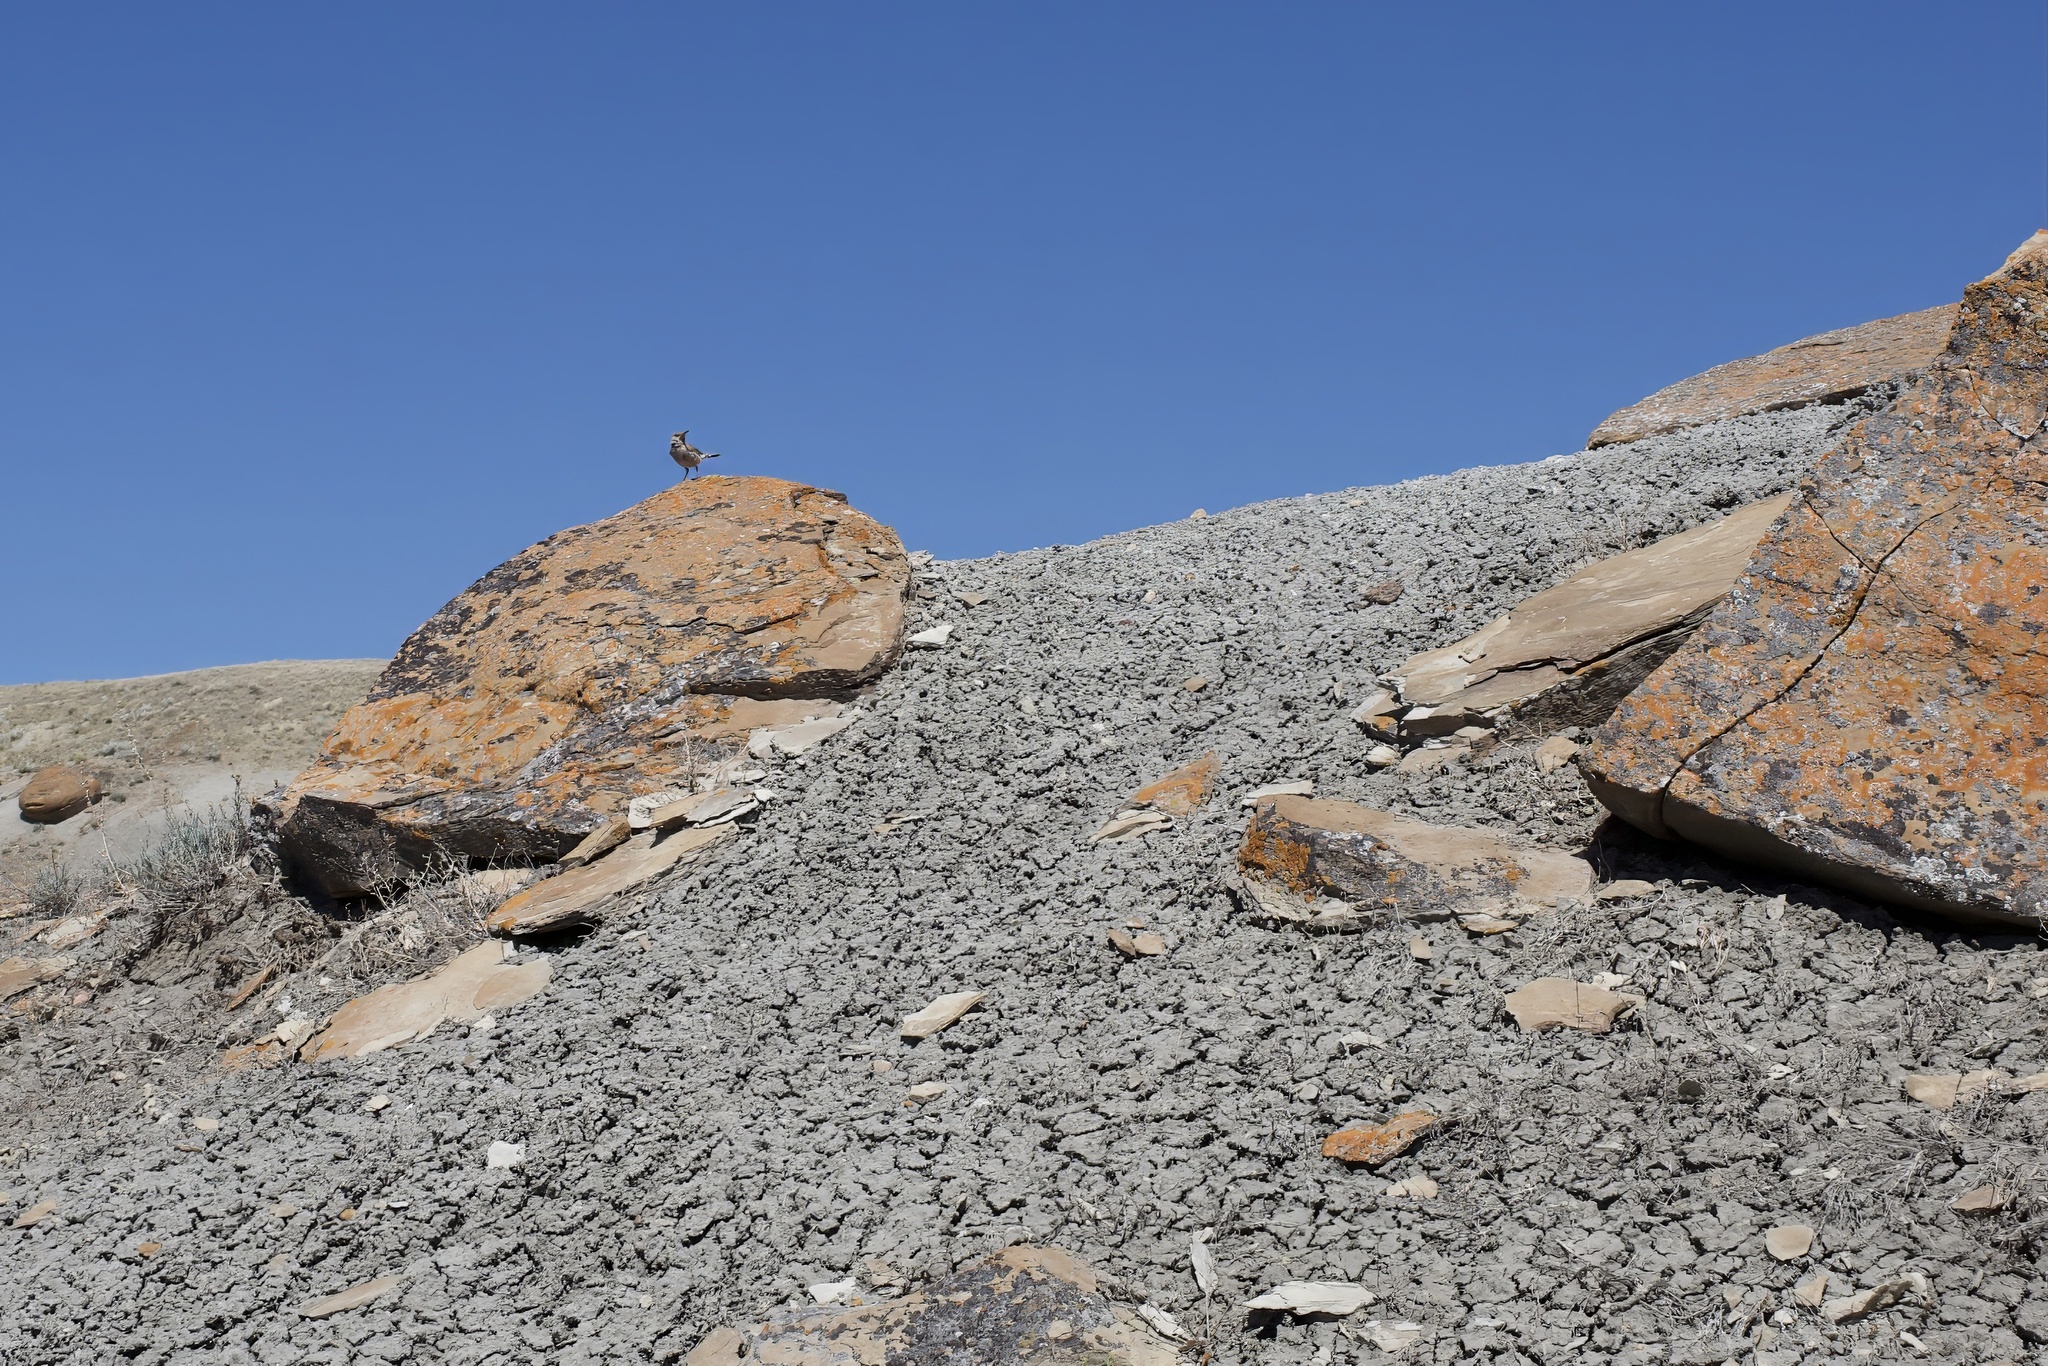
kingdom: Animalia
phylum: Chordata
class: Aves
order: Passeriformes
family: Troglodytidae
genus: Salpinctes
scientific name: Salpinctes obsoletus
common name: Rock wren
